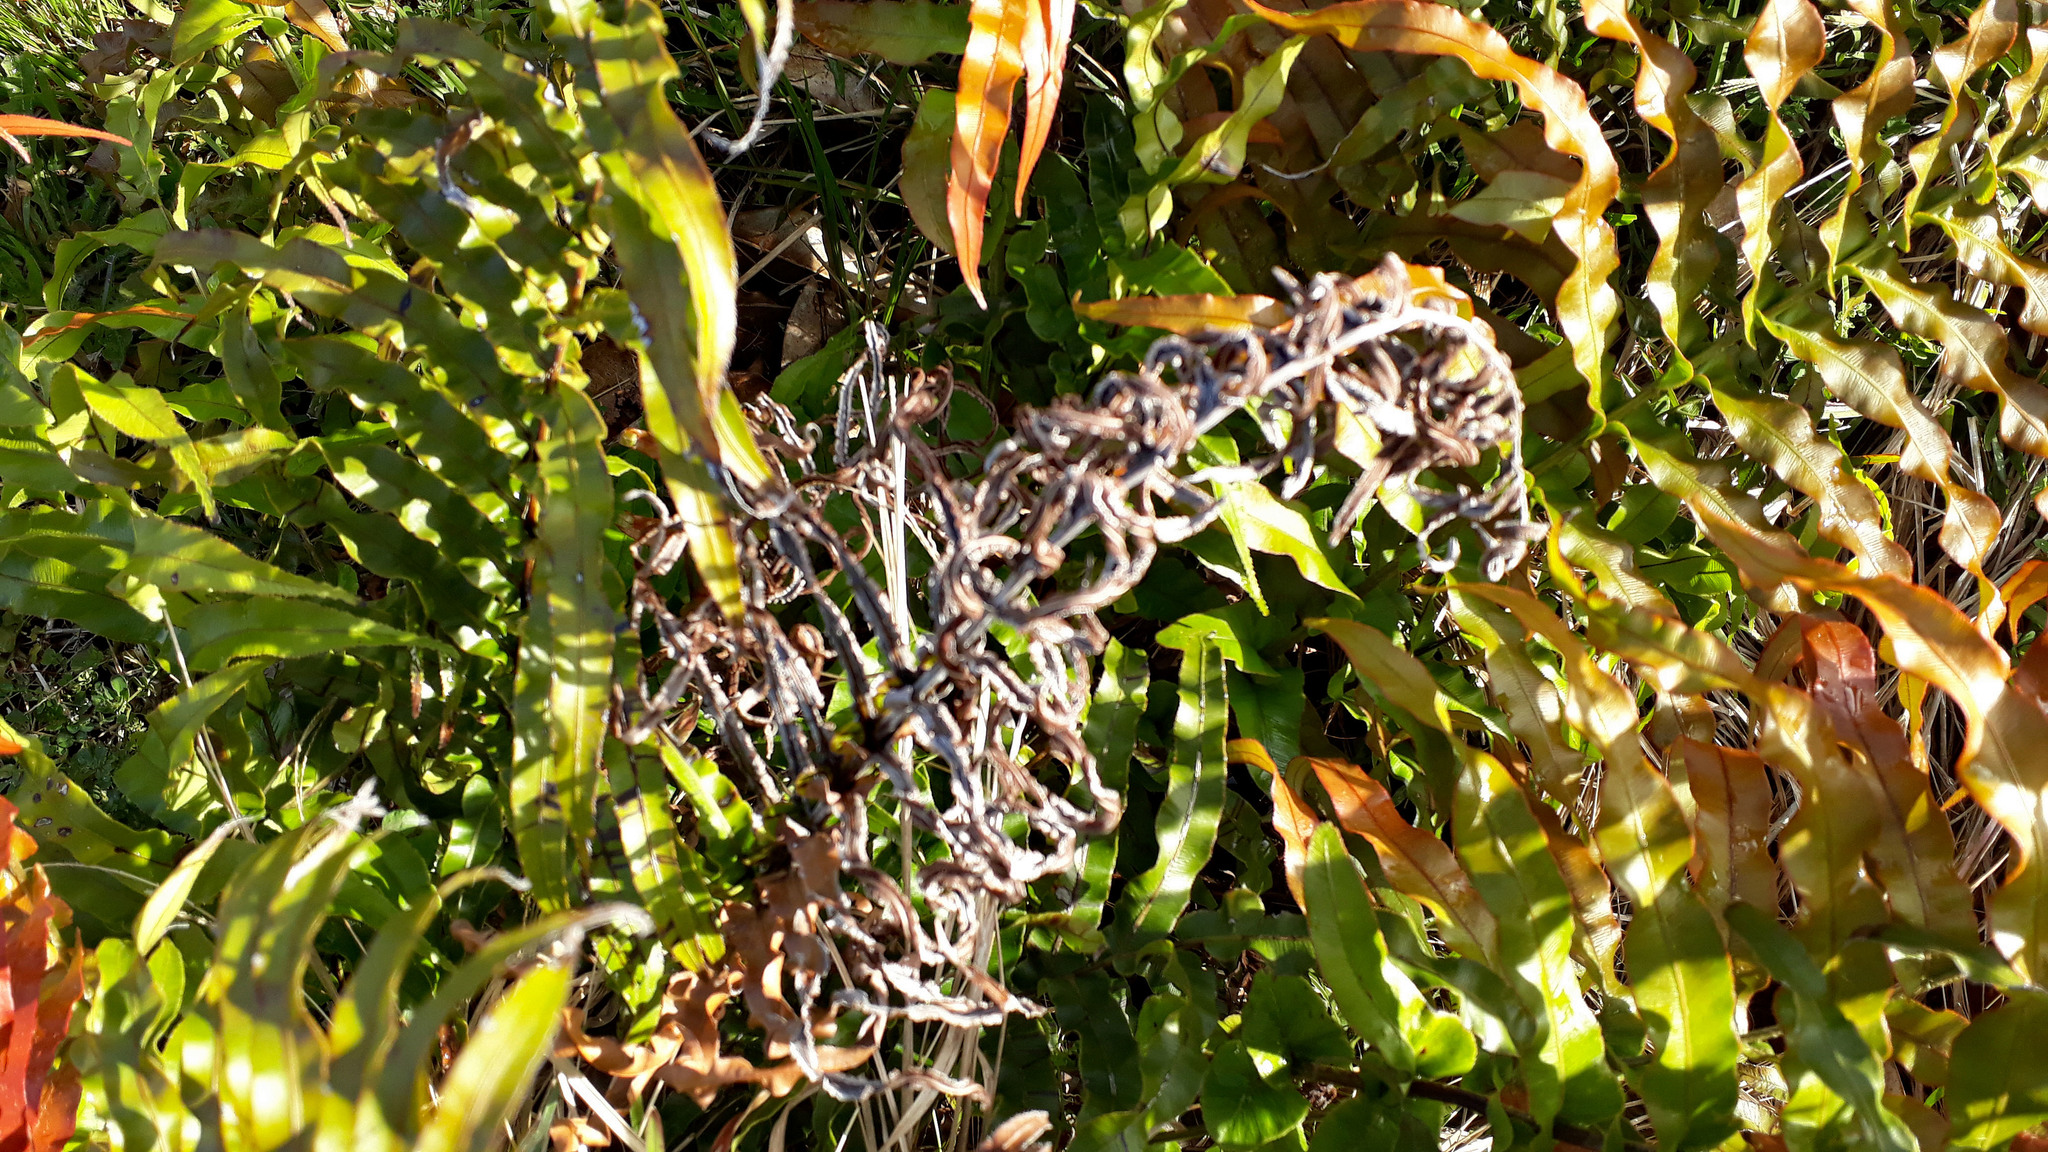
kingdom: Plantae
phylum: Tracheophyta
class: Polypodiopsida
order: Polypodiales
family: Blechnaceae
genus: Parablechnum
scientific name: Parablechnum novae-zelandiae
